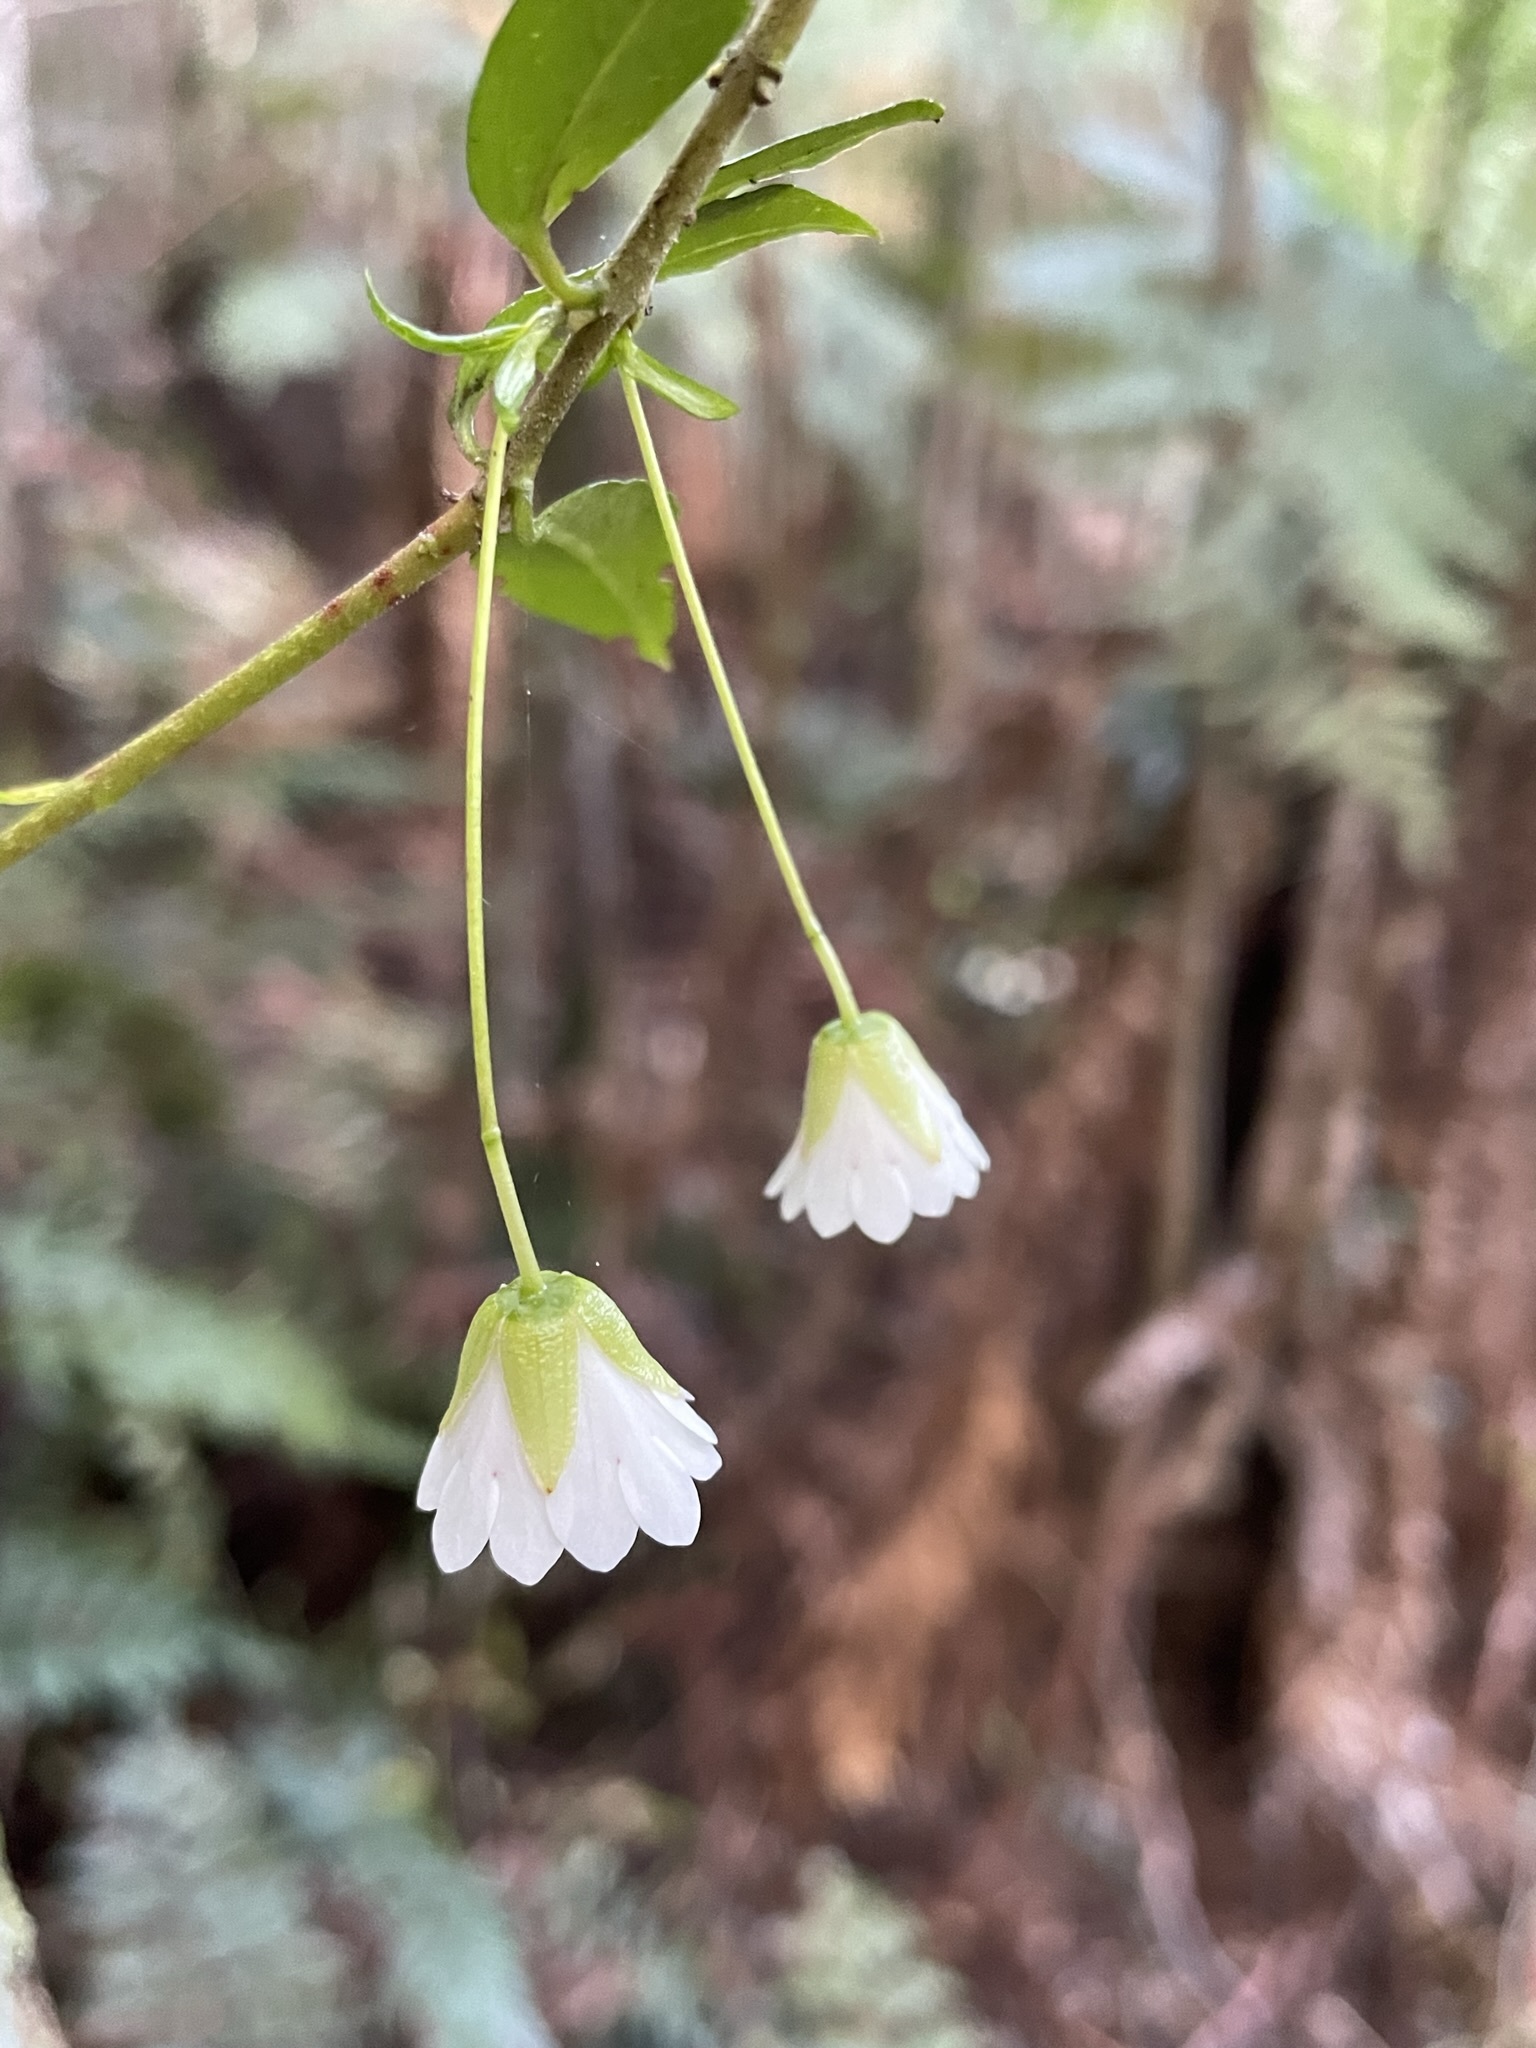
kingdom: Plantae
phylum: Tracheophyta
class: Magnoliopsida
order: Oxalidales
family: Elaeocarpaceae
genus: Aristotelia
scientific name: Aristotelia peduncularis
